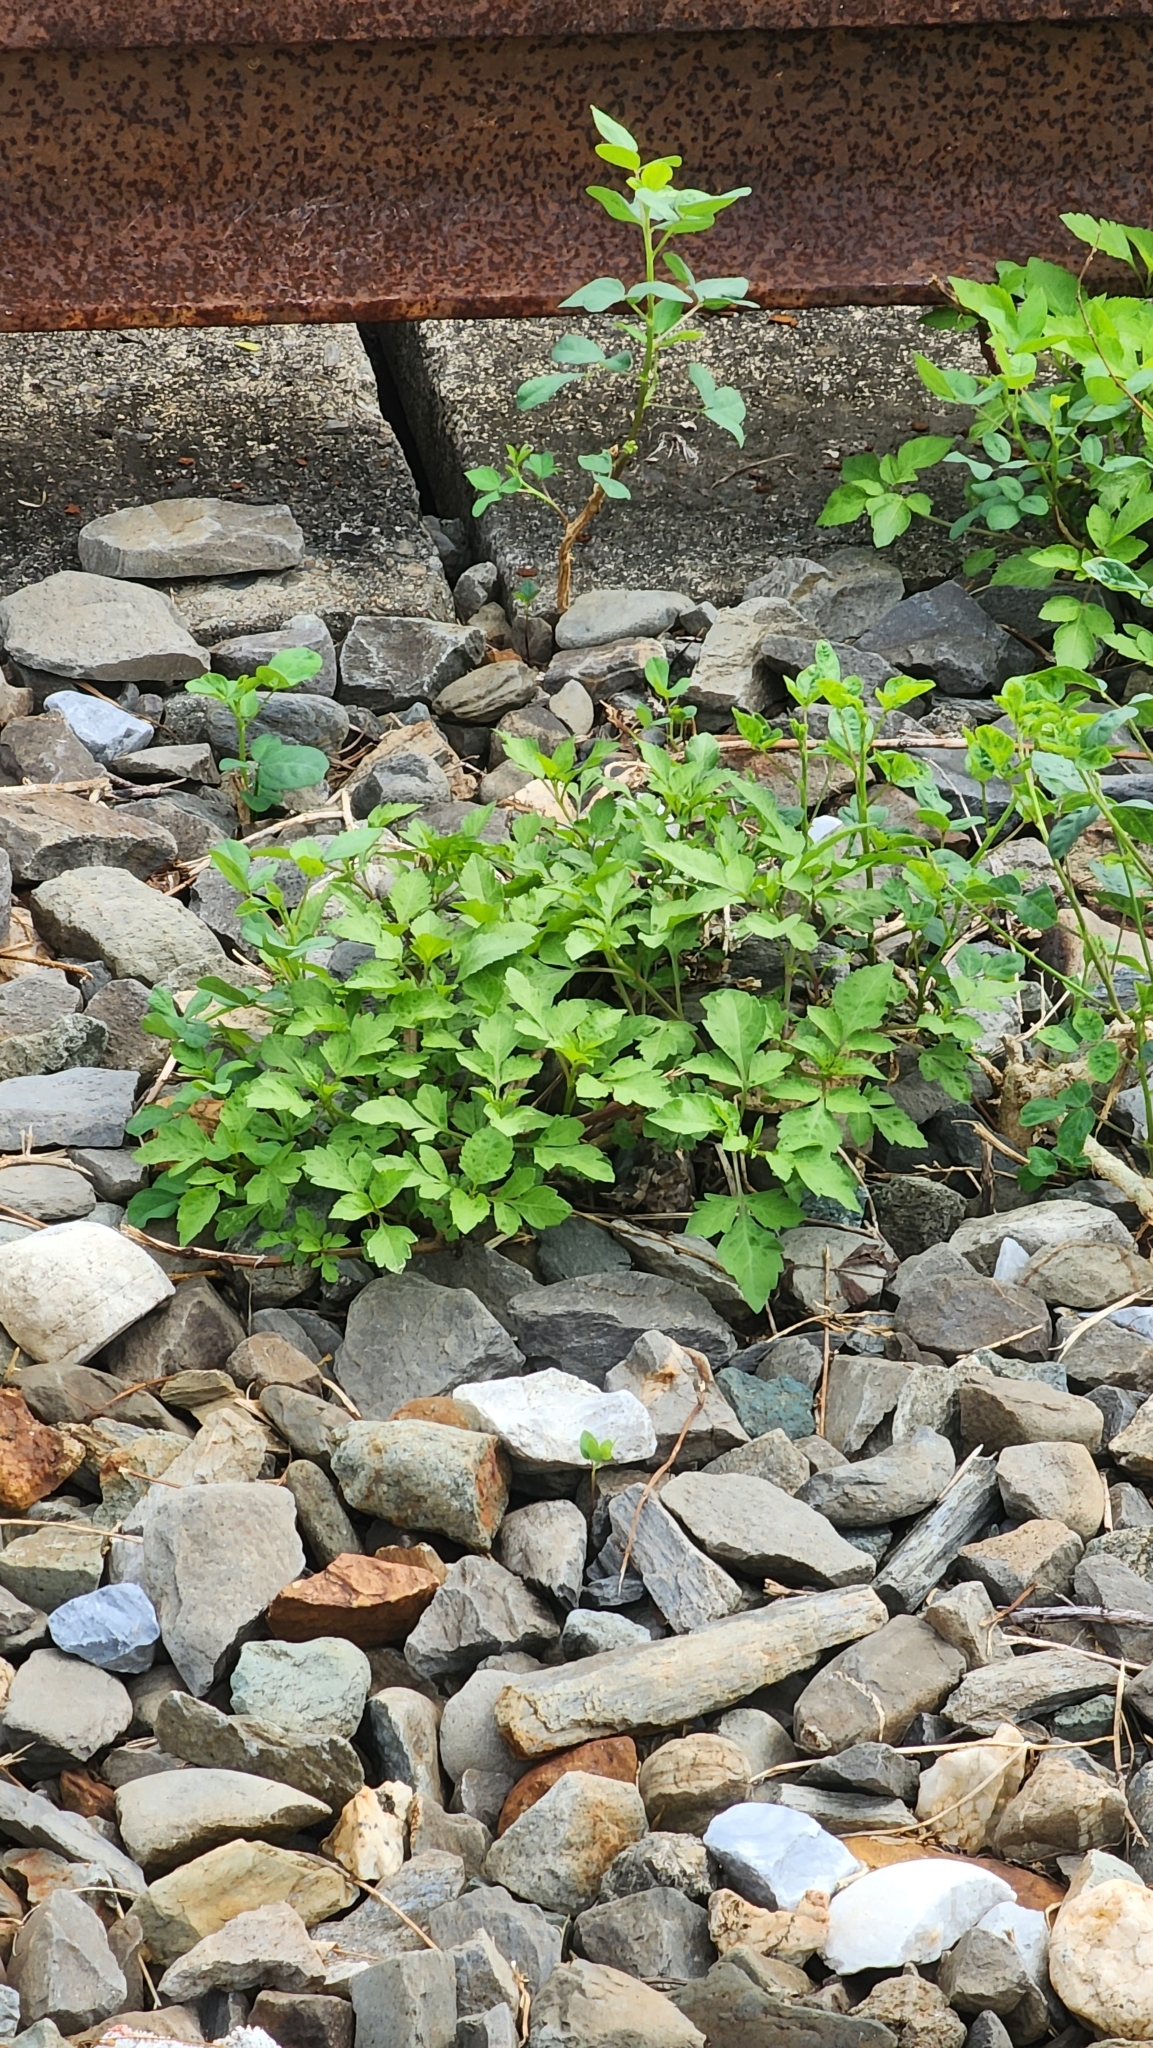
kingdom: Plantae
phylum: Tracheophyta
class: Magnoliopsida
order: Asterales
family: Asteraceae
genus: Bidens
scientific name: Bidens alba
